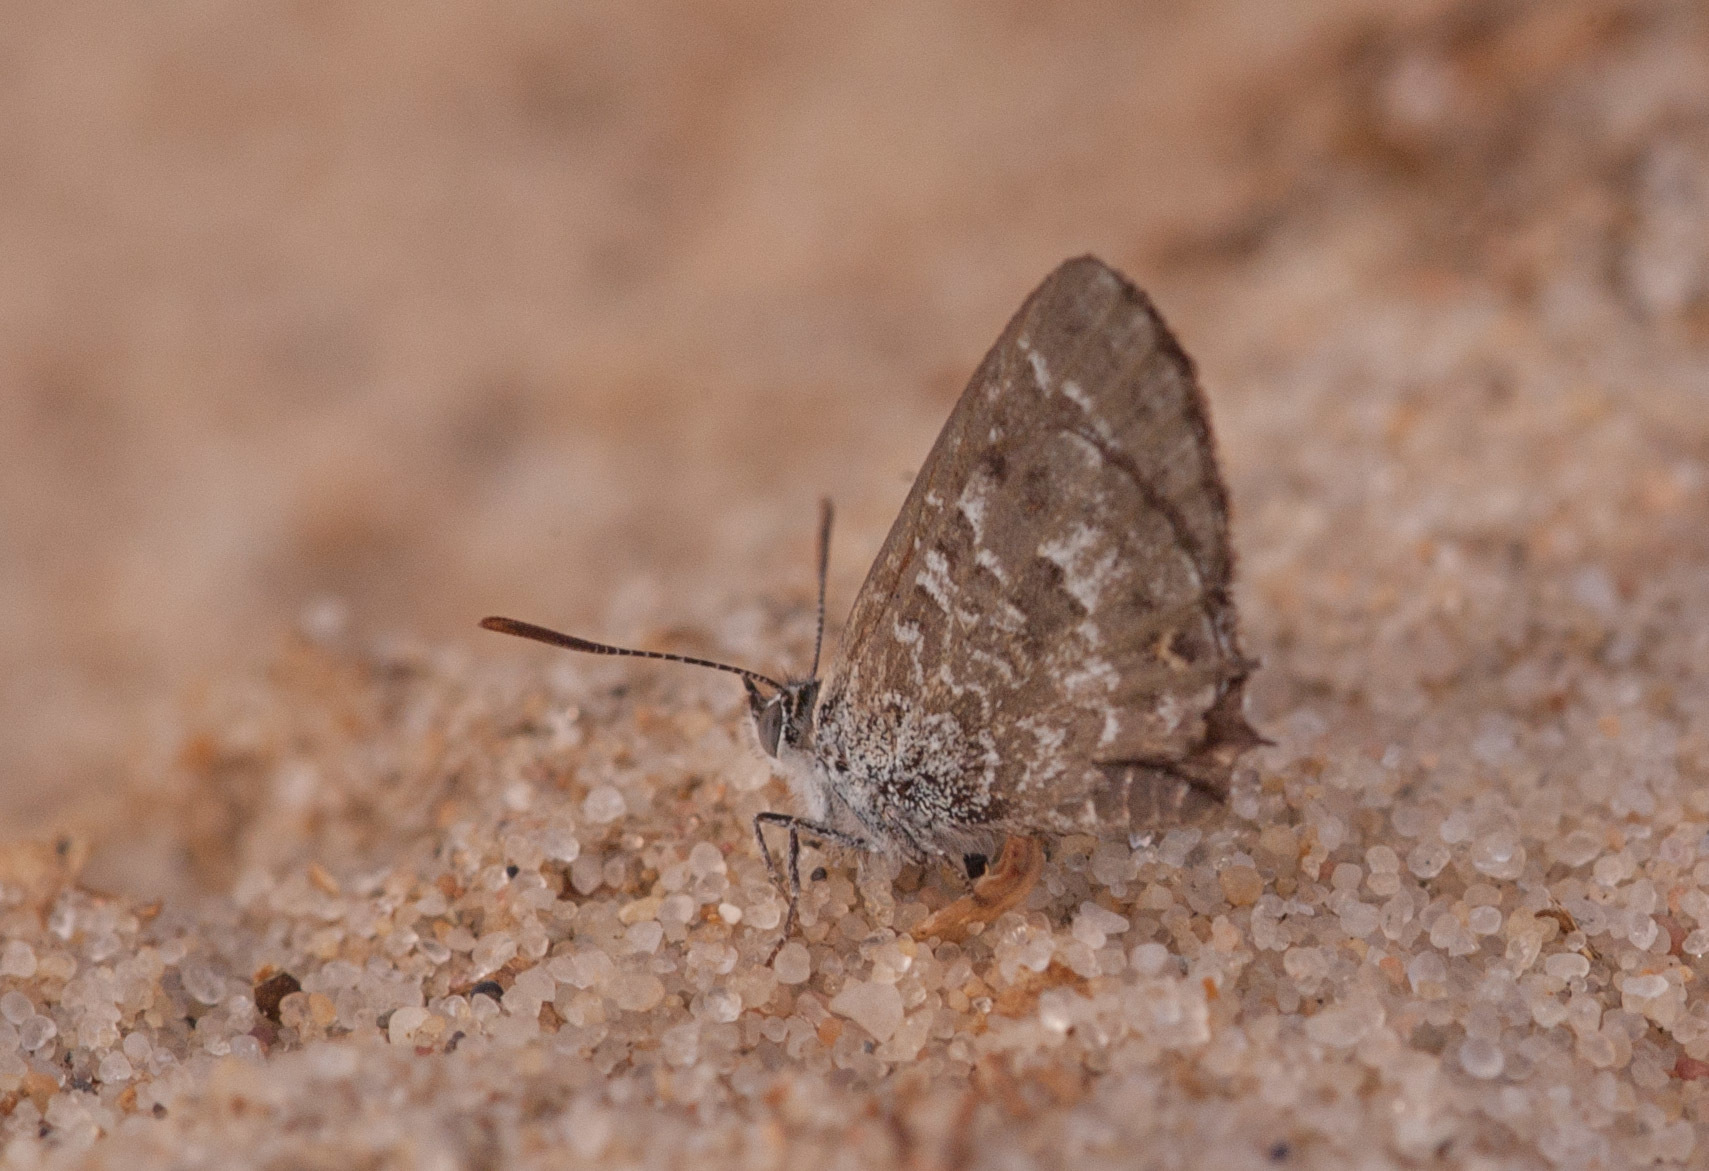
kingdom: Animalia
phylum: Arthropoda
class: Insecta
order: Lepidoptera
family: Lycaenidae
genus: Theclinesthes
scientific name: Theclinesthes serpentata
